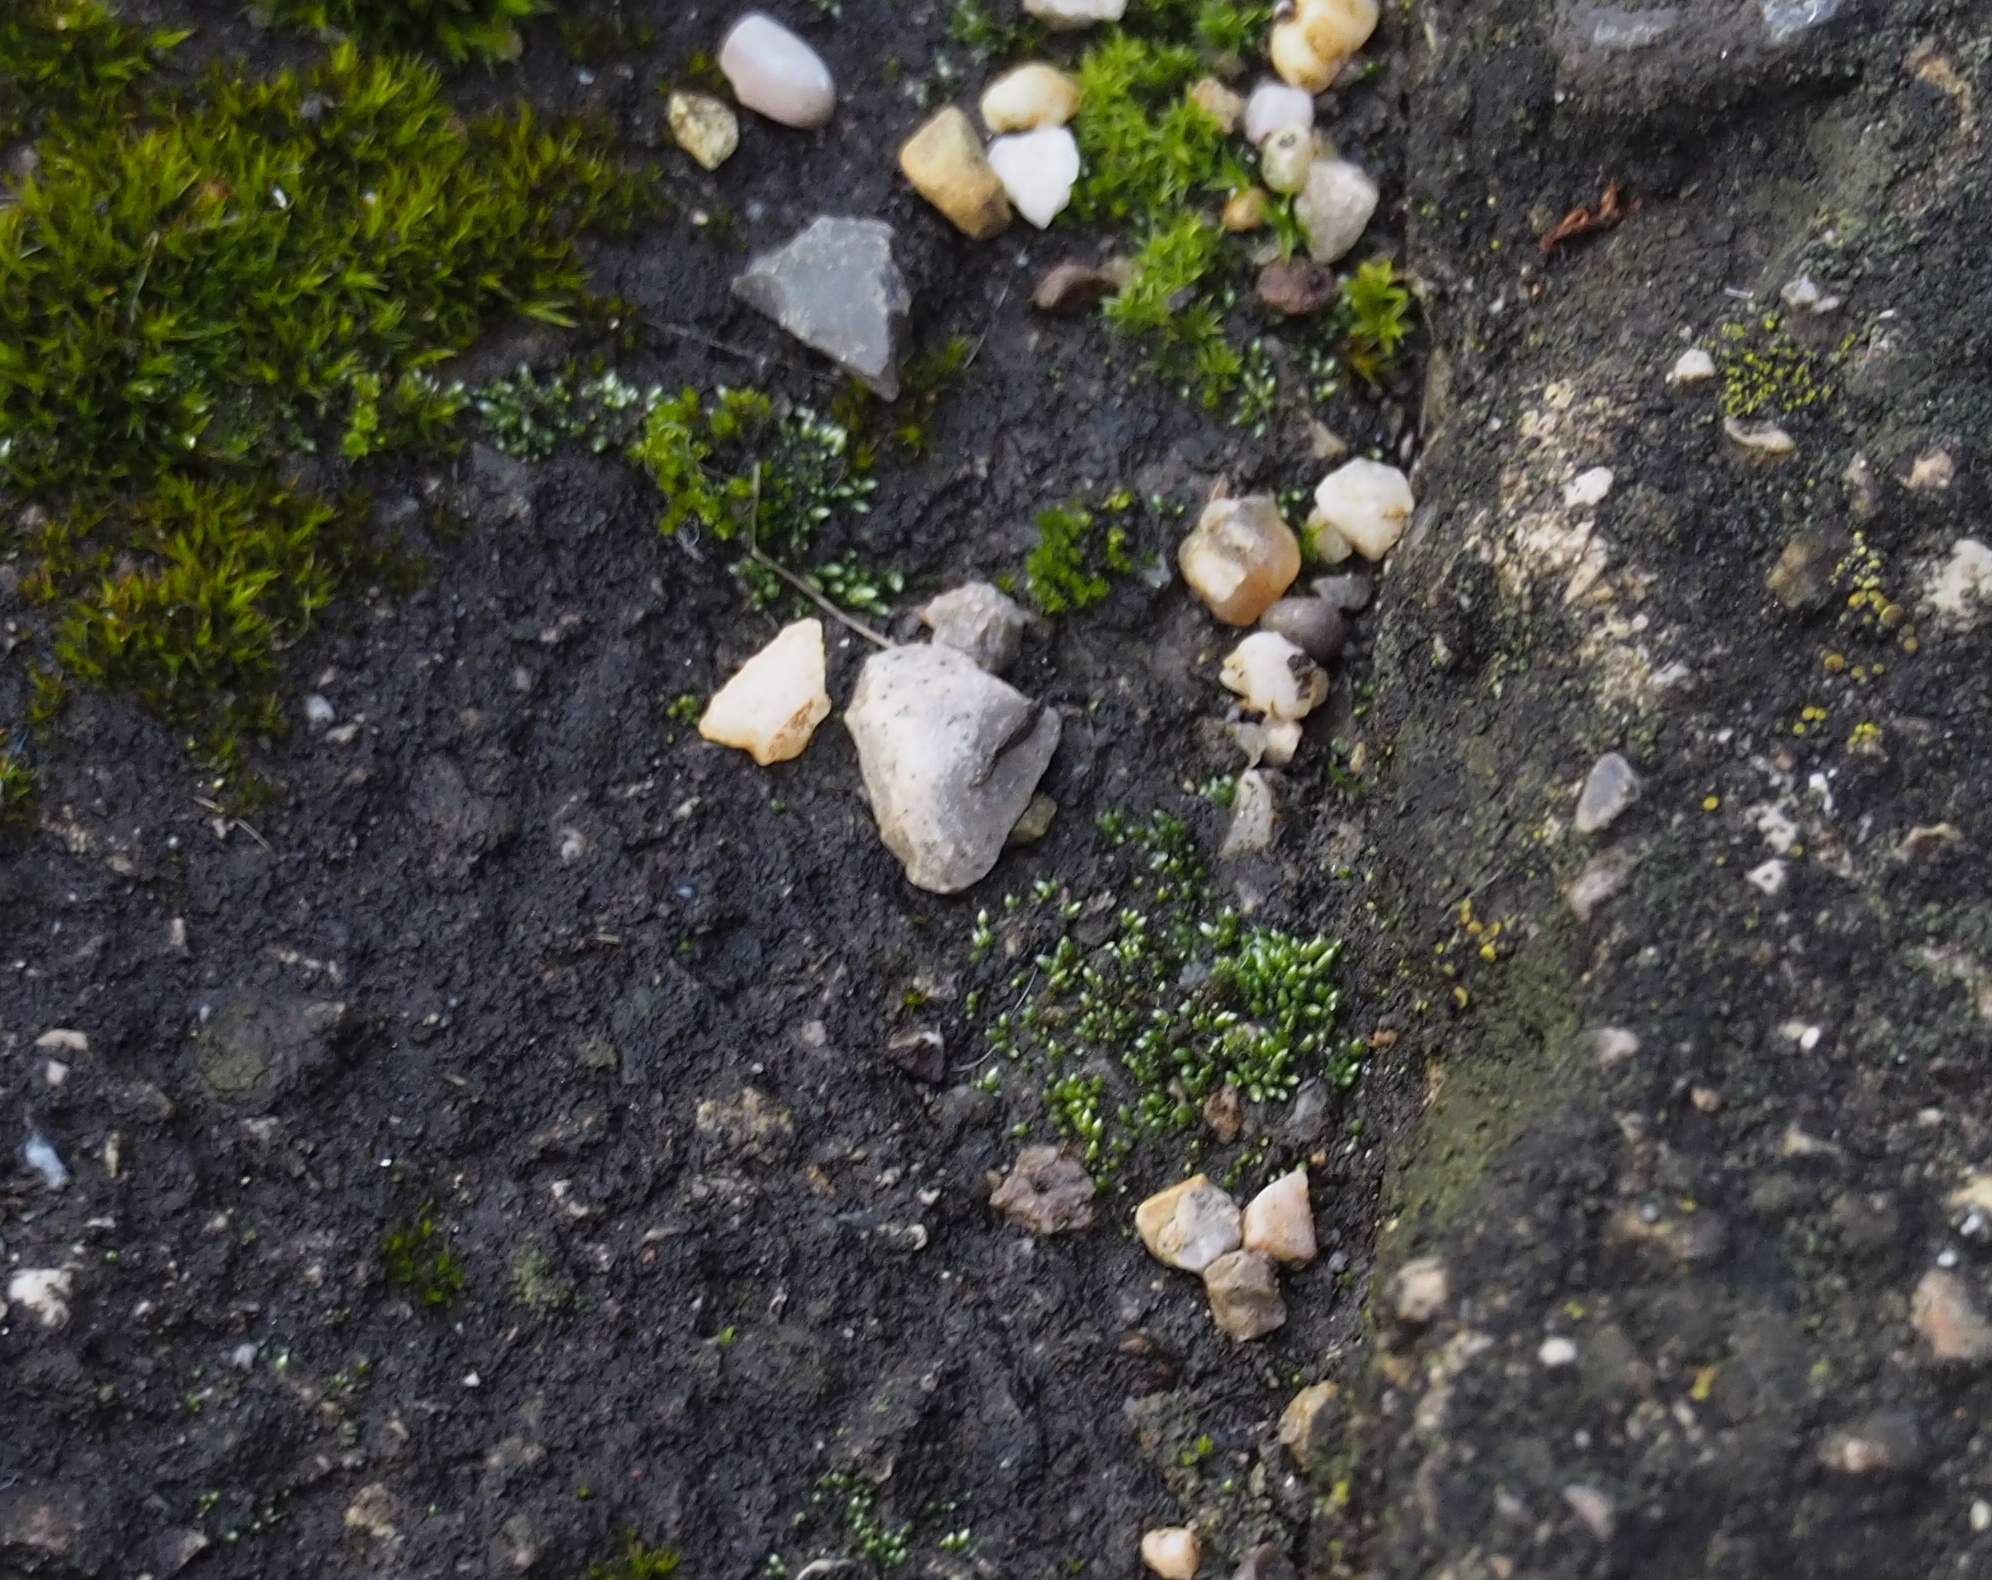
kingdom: Plantae
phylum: Bryophyta
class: Bryopsida
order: Bryales
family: Bryaceae
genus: Bryum
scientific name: Bryum argenteum
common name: Silver-moss
